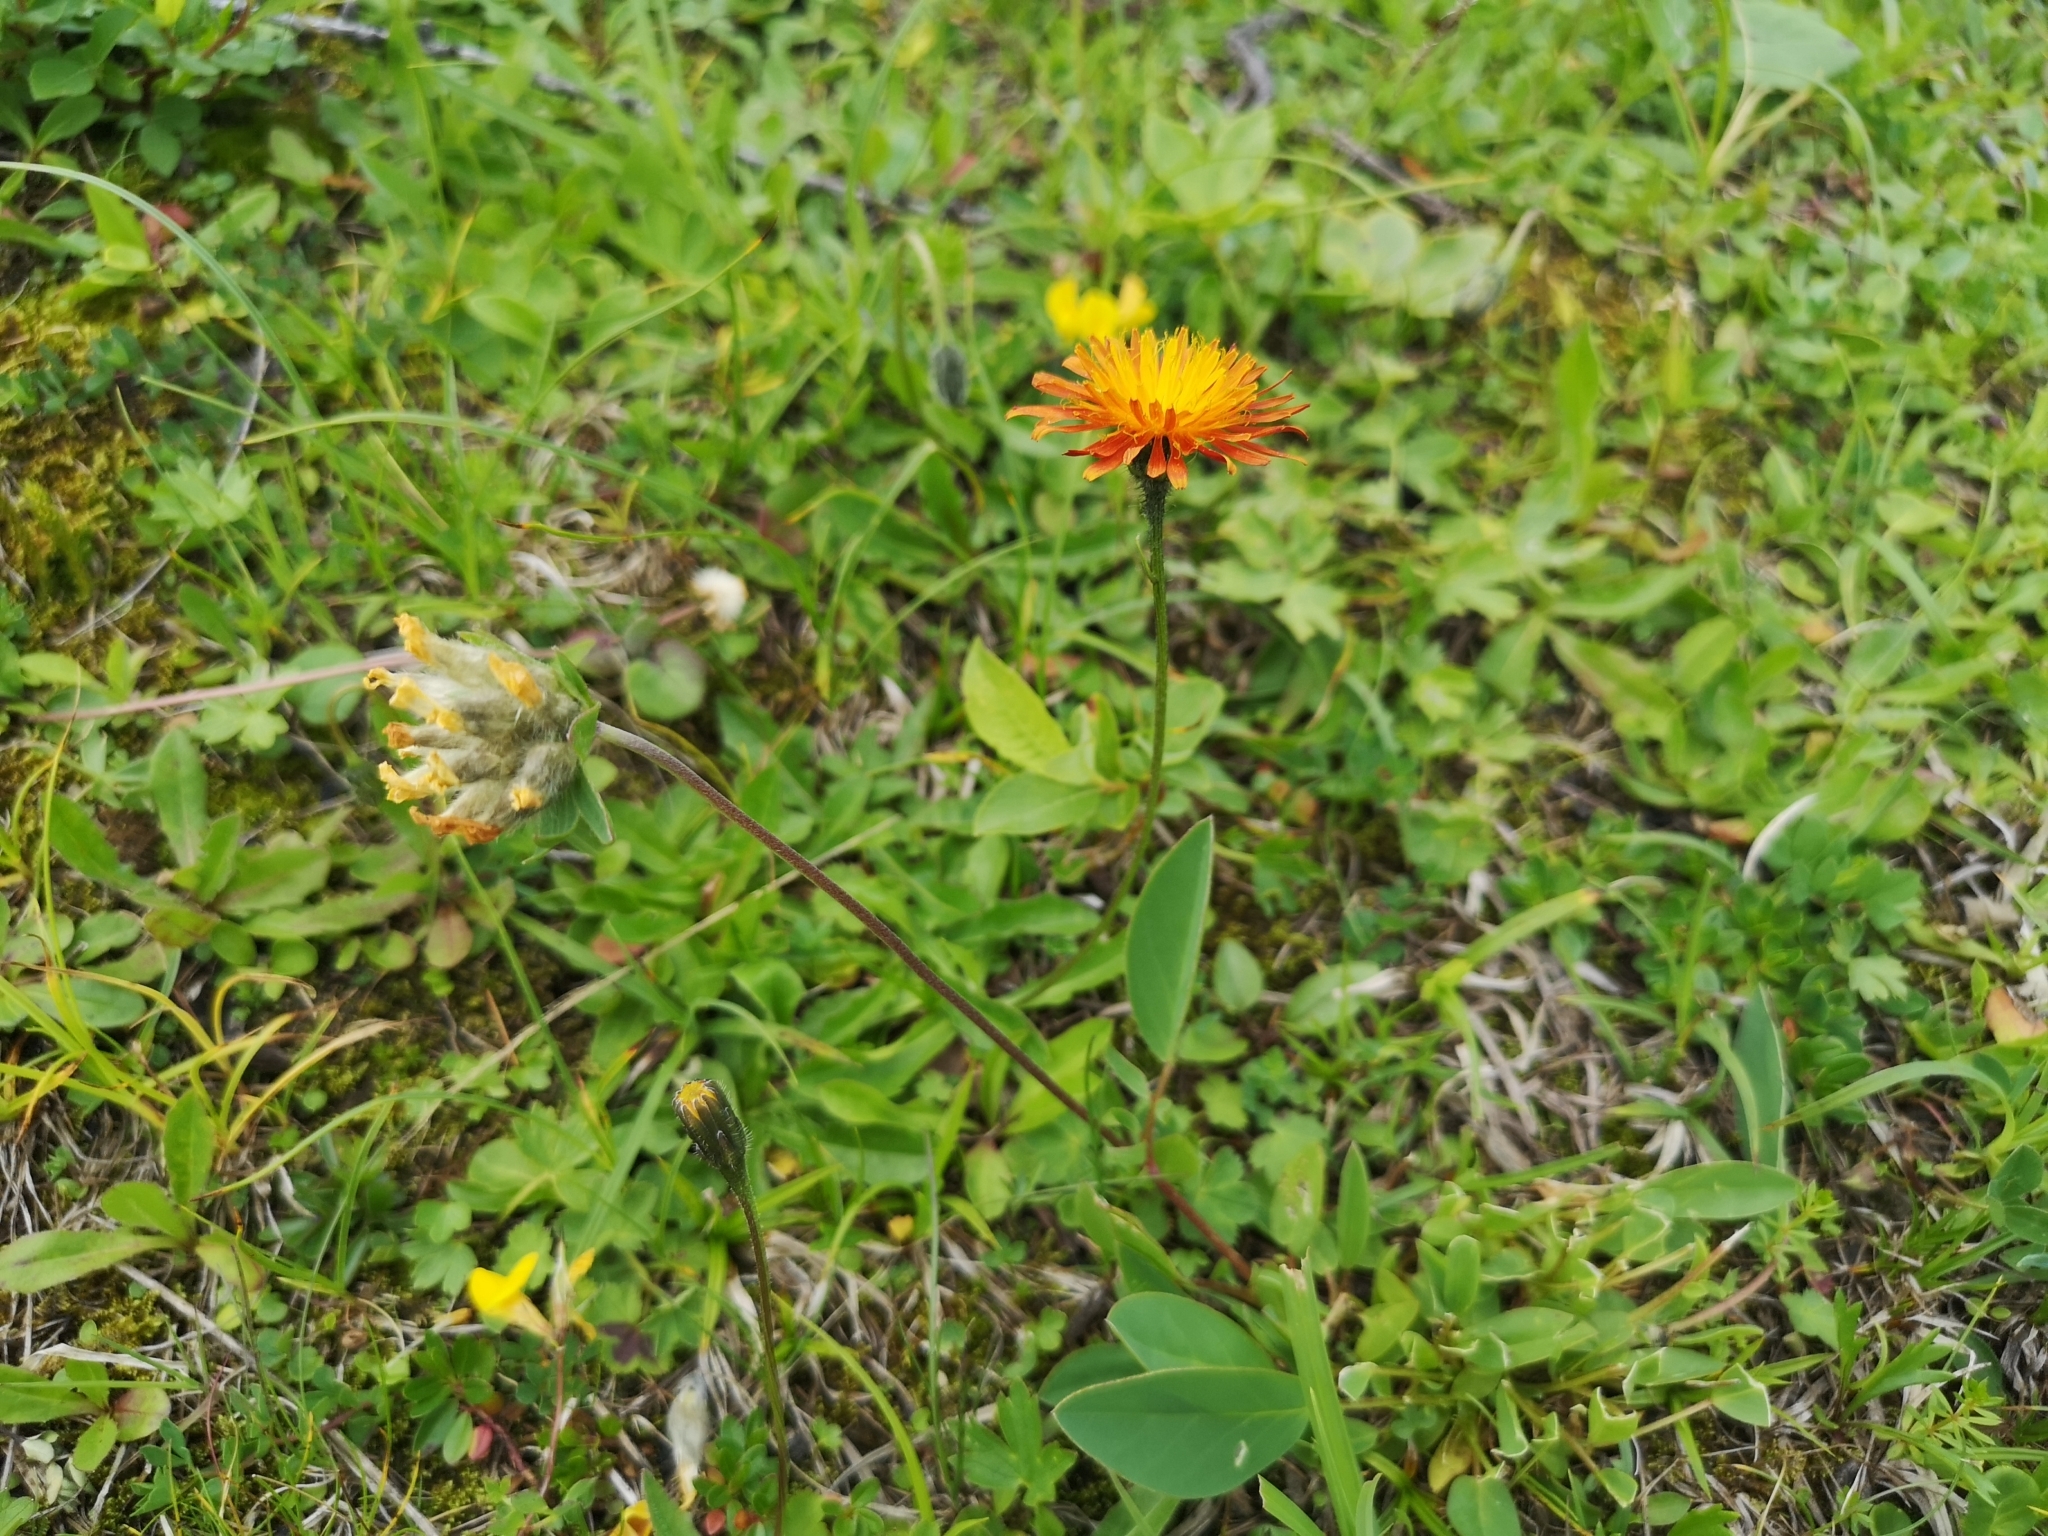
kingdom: Plantae
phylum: Tracheophyta
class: Magnoliopsida
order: Asterales
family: Asteraceae
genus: Crepis
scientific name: Crepis aurea
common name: Golden hawk's-beard
